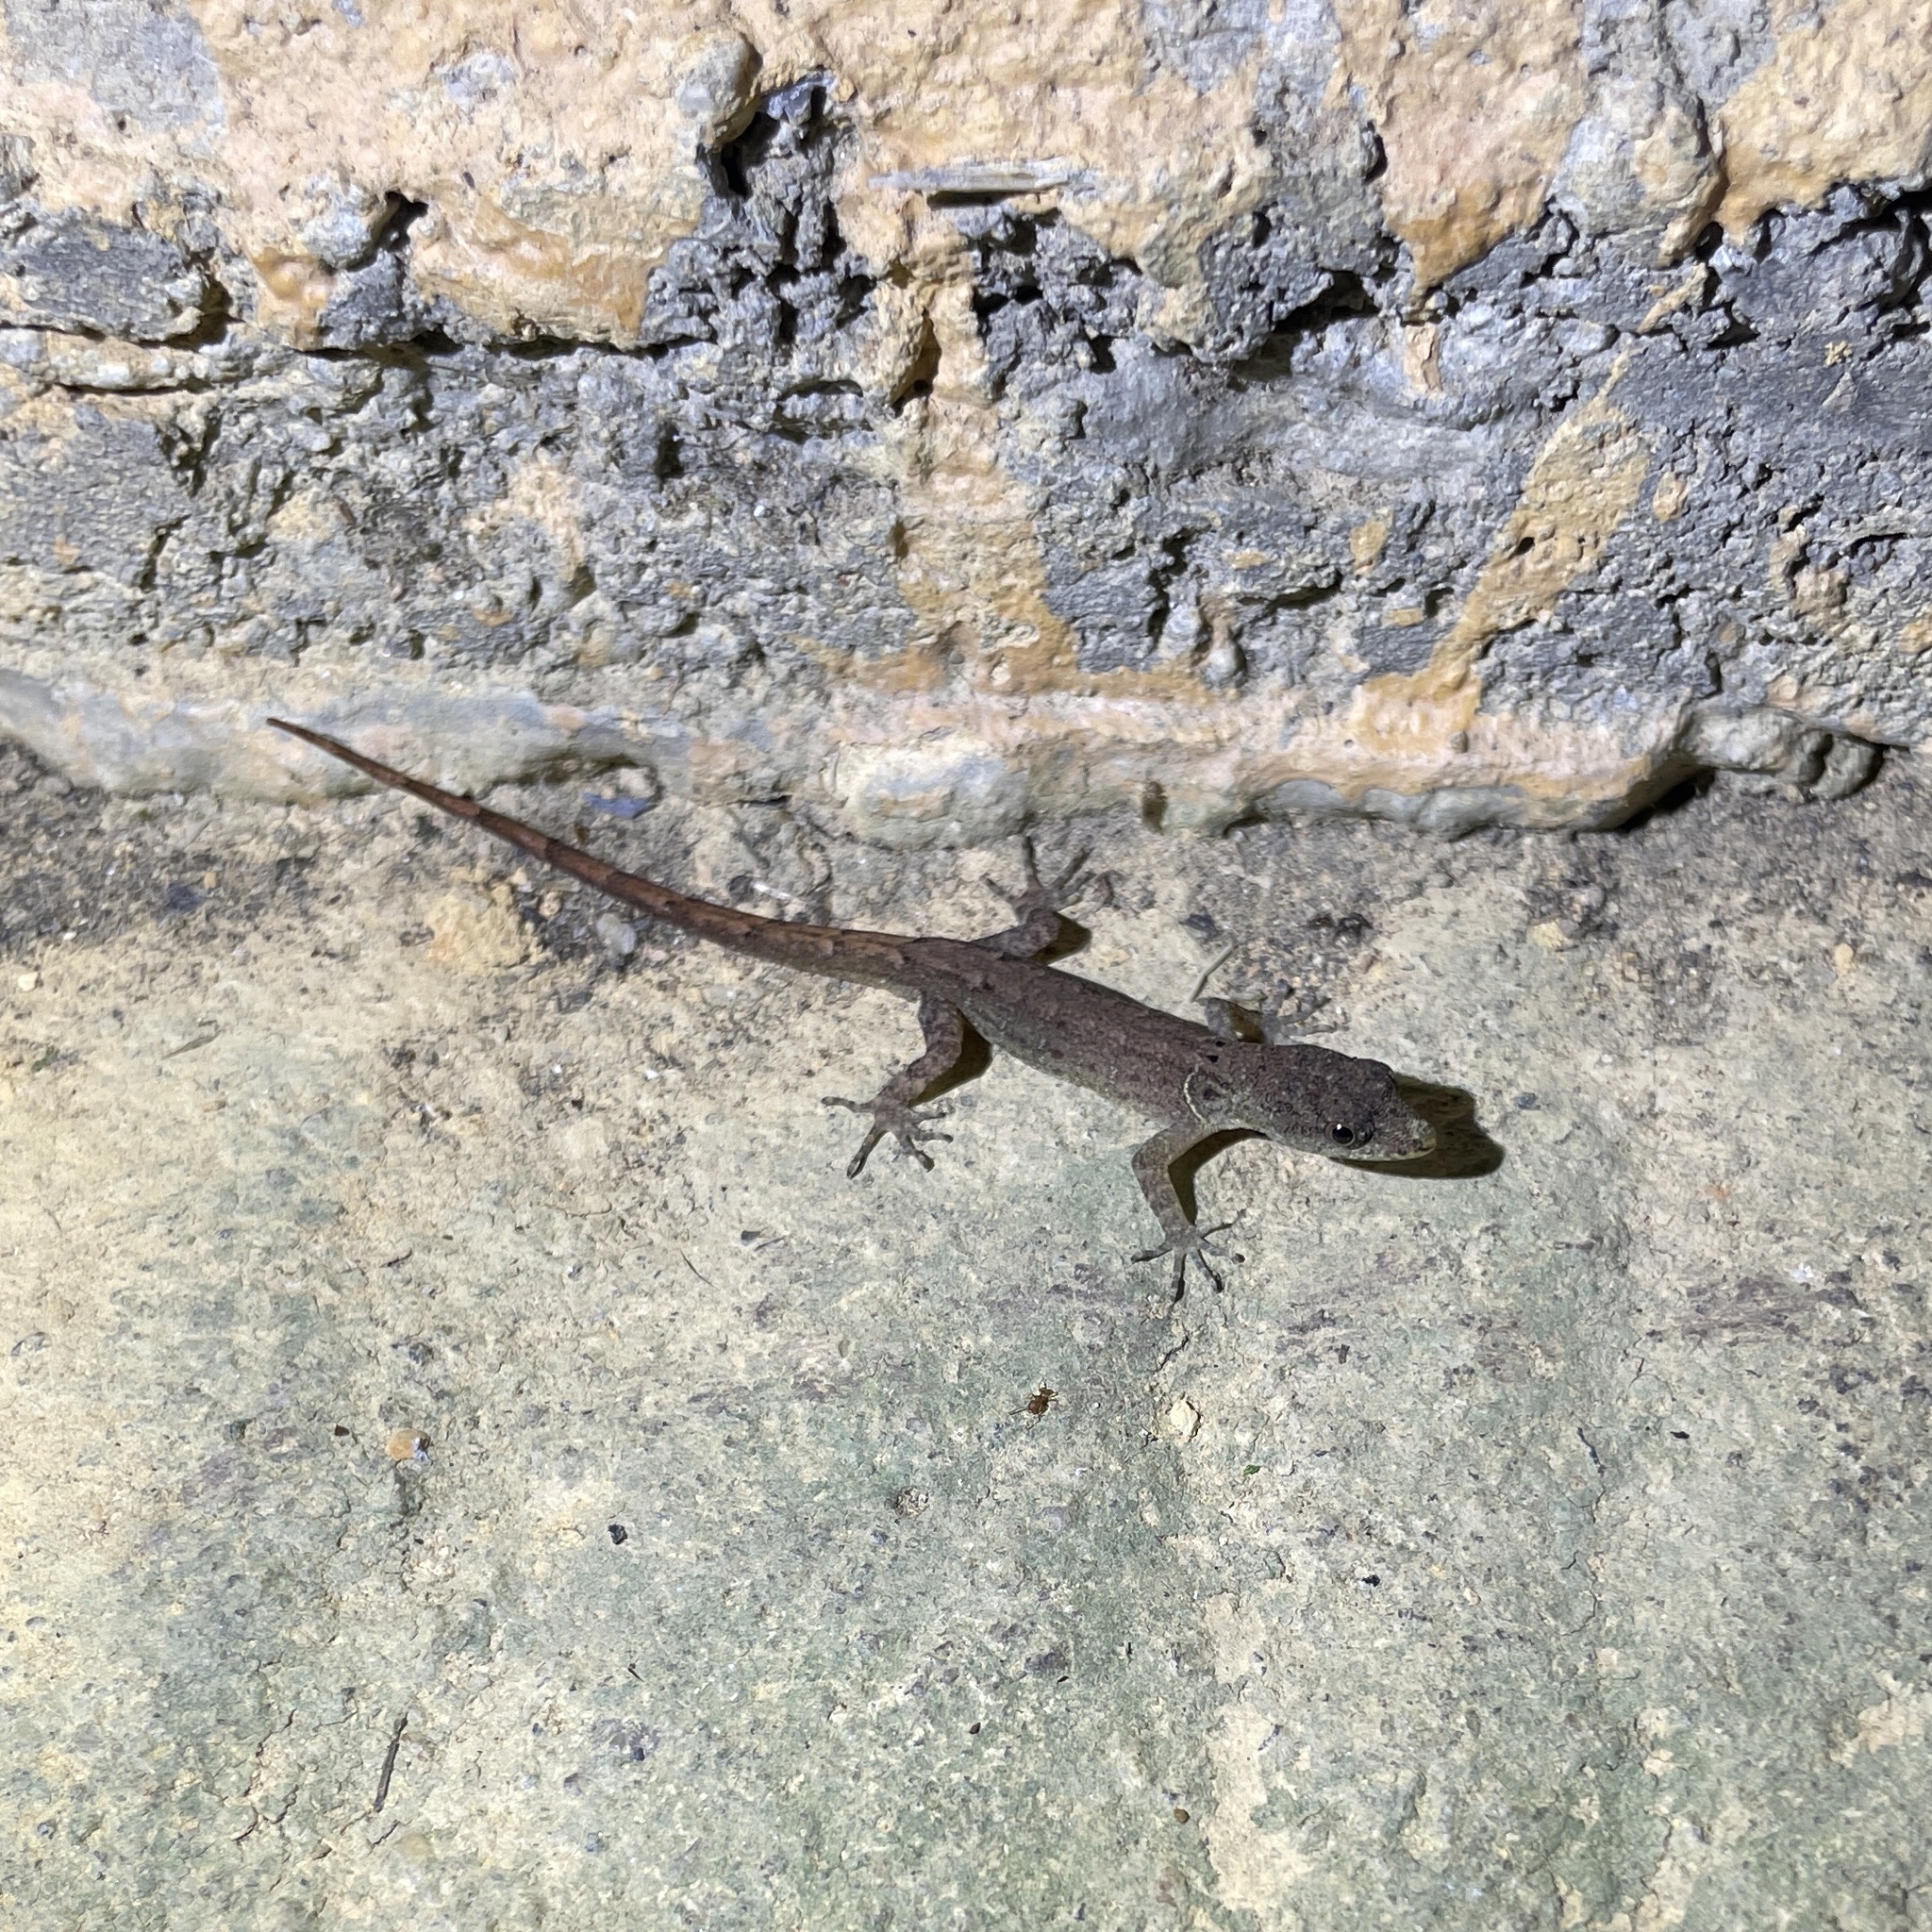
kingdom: Animalia
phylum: Chordata
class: Squamata
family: Sphaerodactylidae
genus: Gonatodes
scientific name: Gonatodes humeralis
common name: South american clawed gecko
